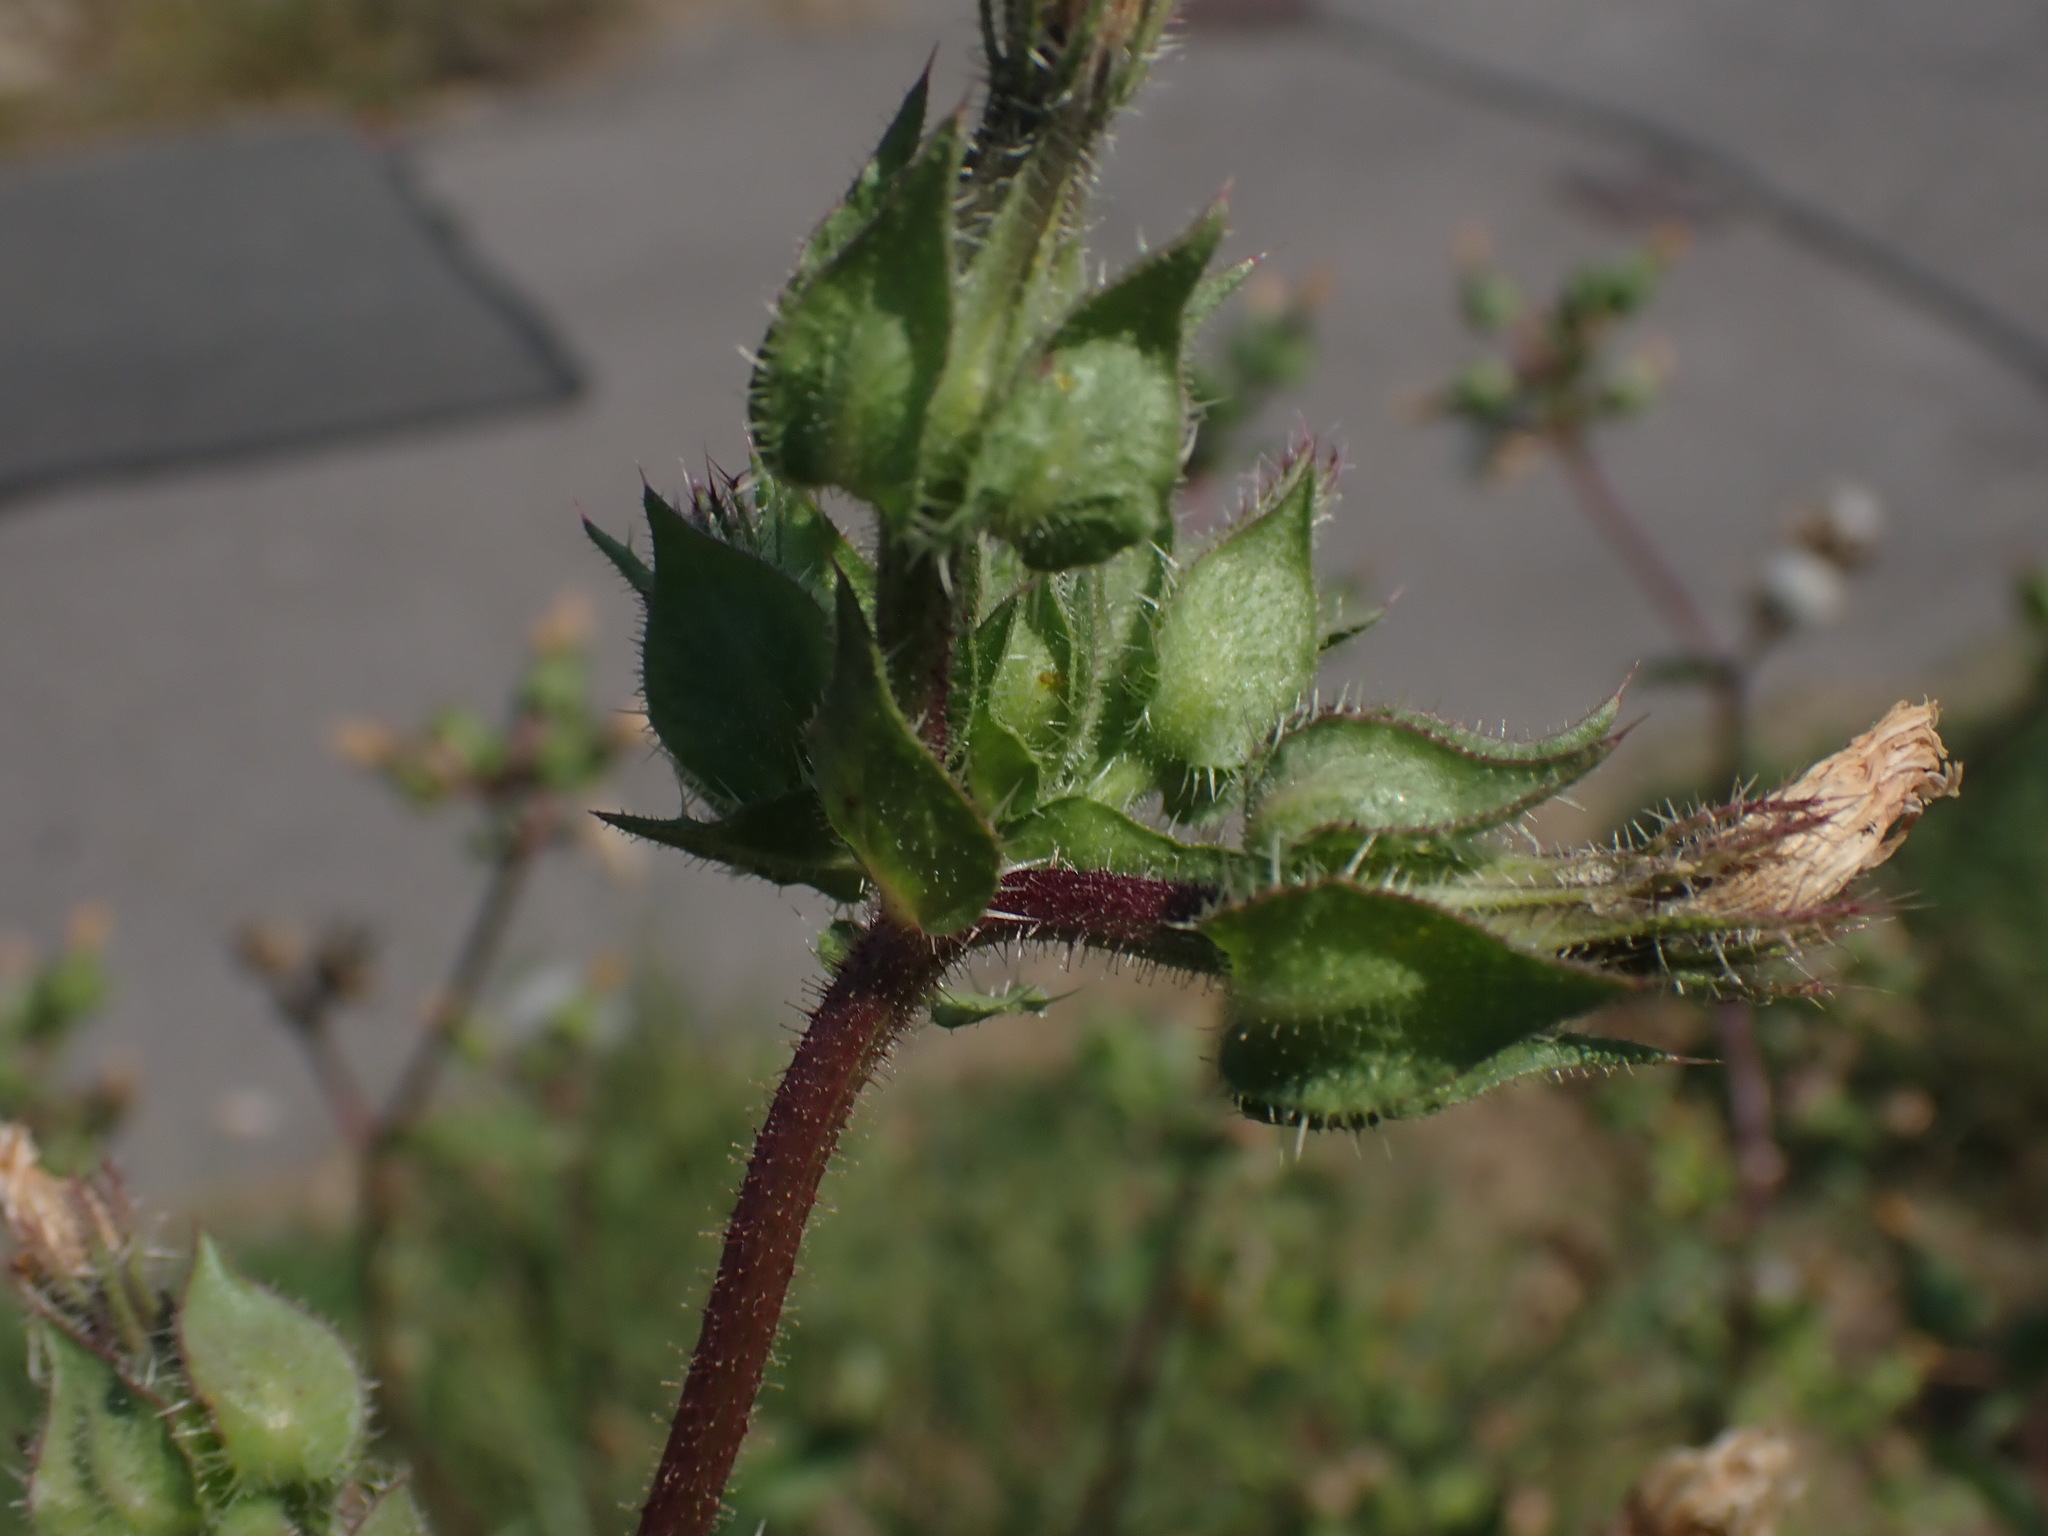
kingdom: Plantae
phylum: Tracheophyta
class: Magnoliopsida
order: Asterales
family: Asteraceae
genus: Helminthotheca
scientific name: Helminthotheca echioides
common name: Ox-tongue
